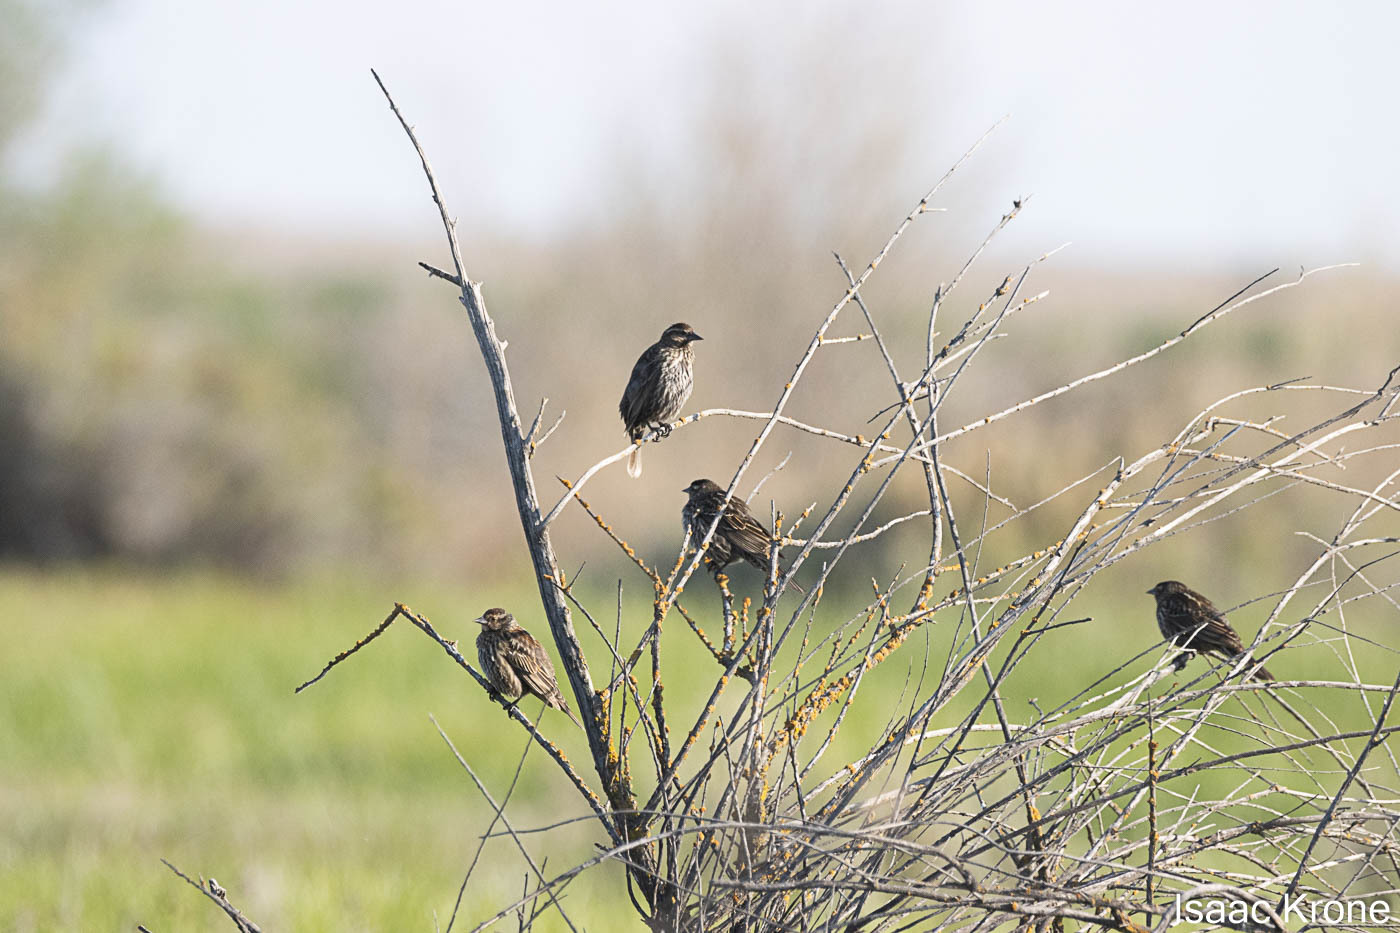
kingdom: Animalia
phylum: Chordata
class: Aves
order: Passeriformes
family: Icteridae
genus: Agelaius
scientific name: Agelaius phoeniceus
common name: Red-winged blackbird
